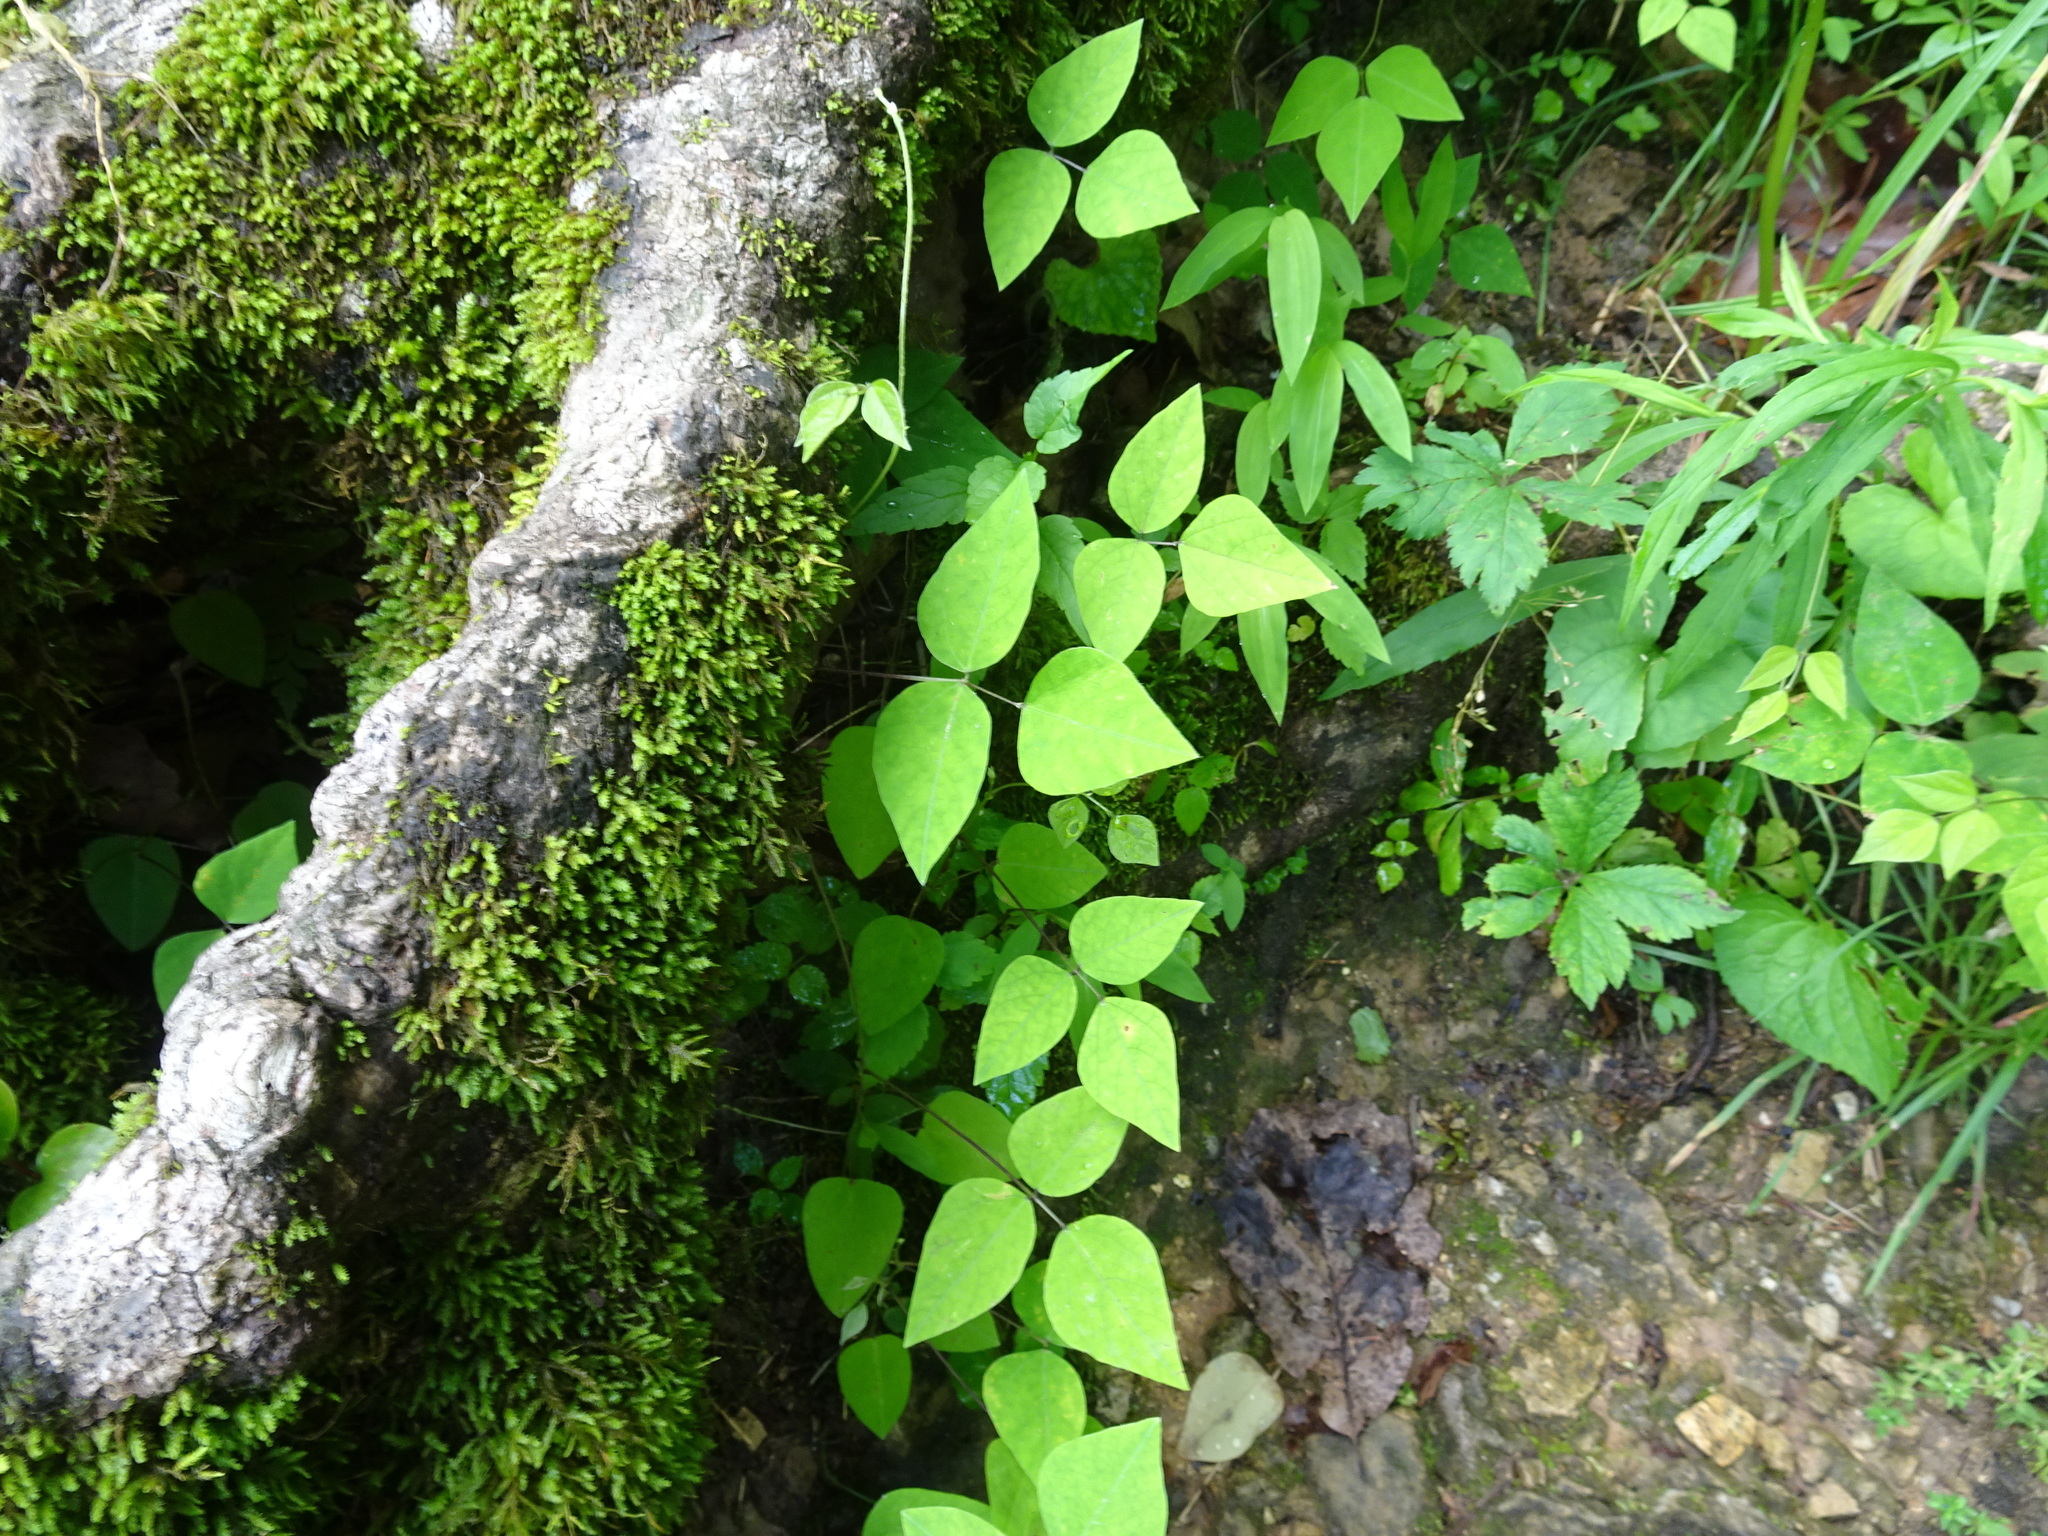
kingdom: Plantae
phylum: Tracheophyta
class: Magnoliopsida
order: Fabales
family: Fabaceae
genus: Amphicarpaea
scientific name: Amphicarpaea bracteata
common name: American hog peanut
